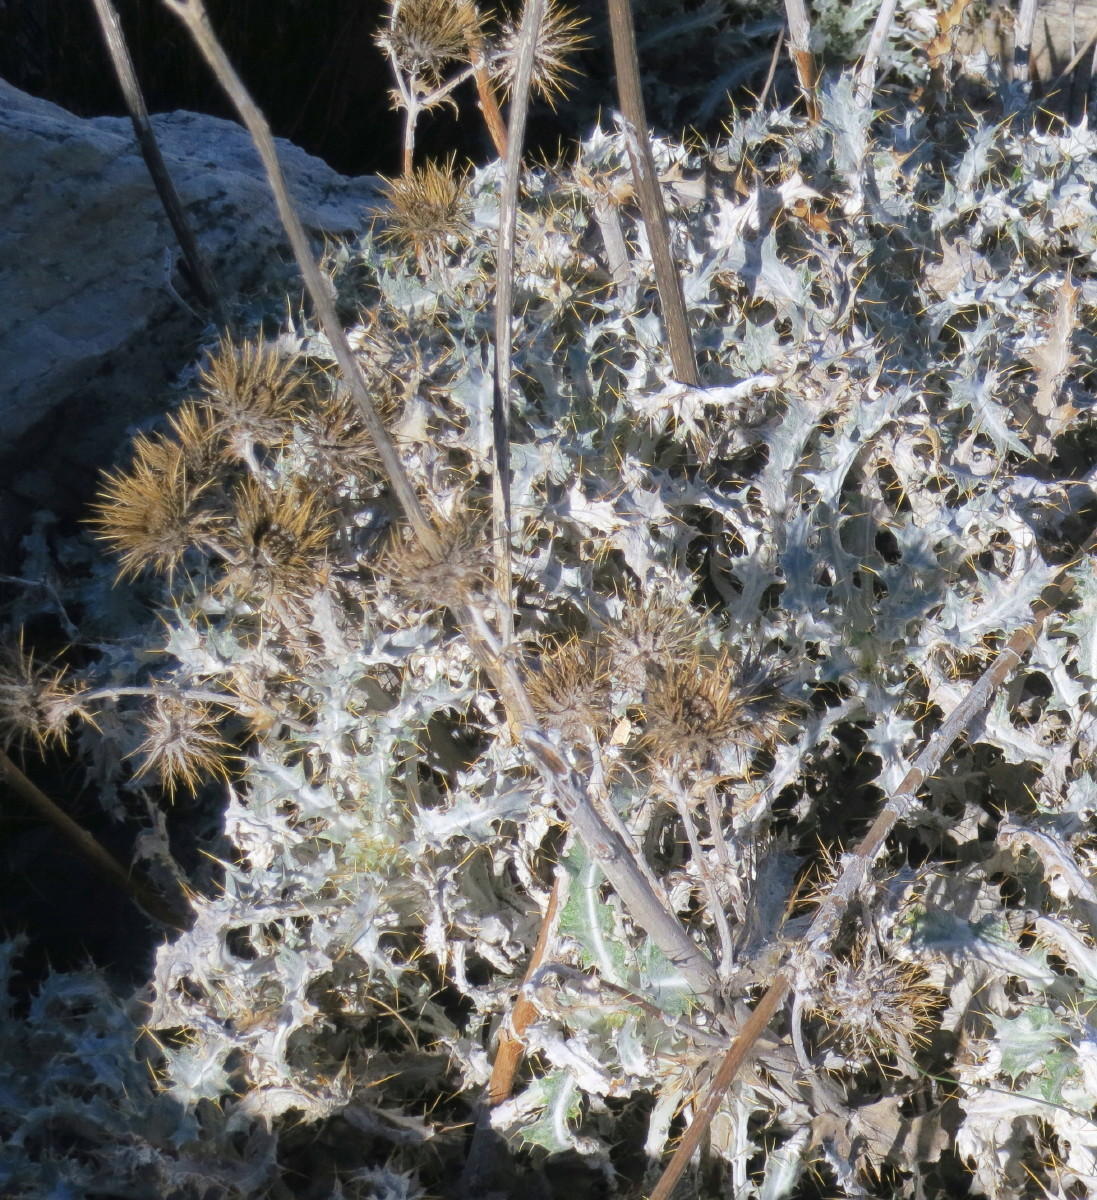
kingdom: Plantae
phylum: Tracheophyta
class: Magnoliopsida
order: Asterales
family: Asteraceae
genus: Berkheya
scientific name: Berkheya francisci
